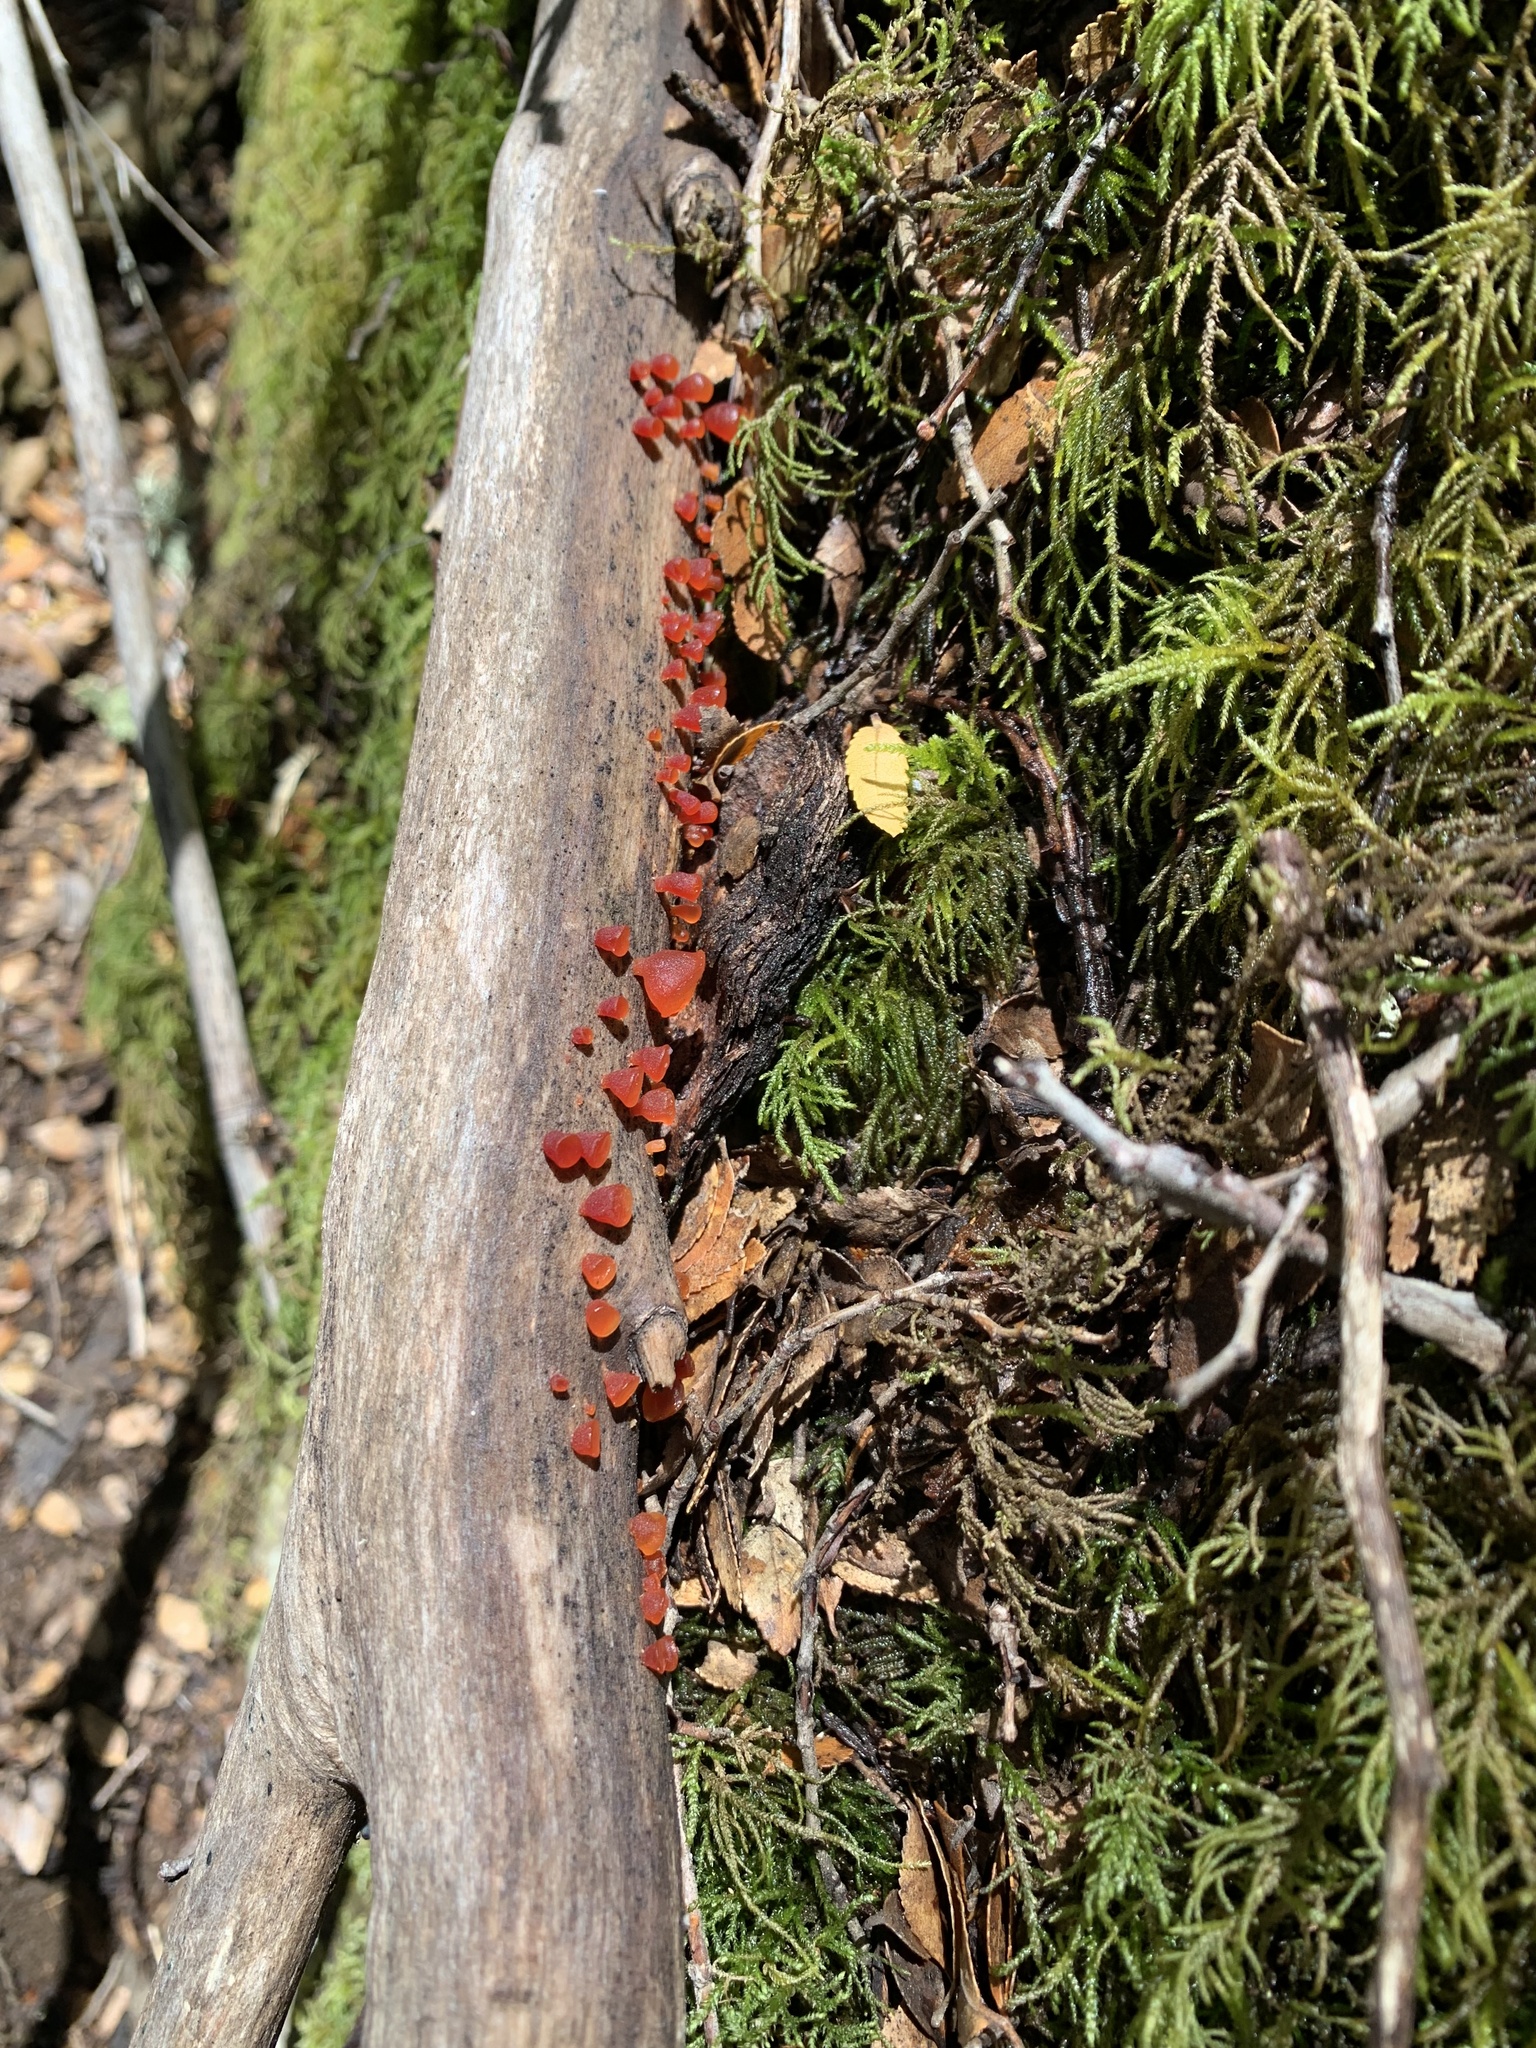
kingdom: Fungi
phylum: Basidiomycota
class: Dacrymycetes
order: Dacrymycetales
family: Dacrymycetaceae
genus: Guepiniopsis
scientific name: Guepiniopsis alpina
